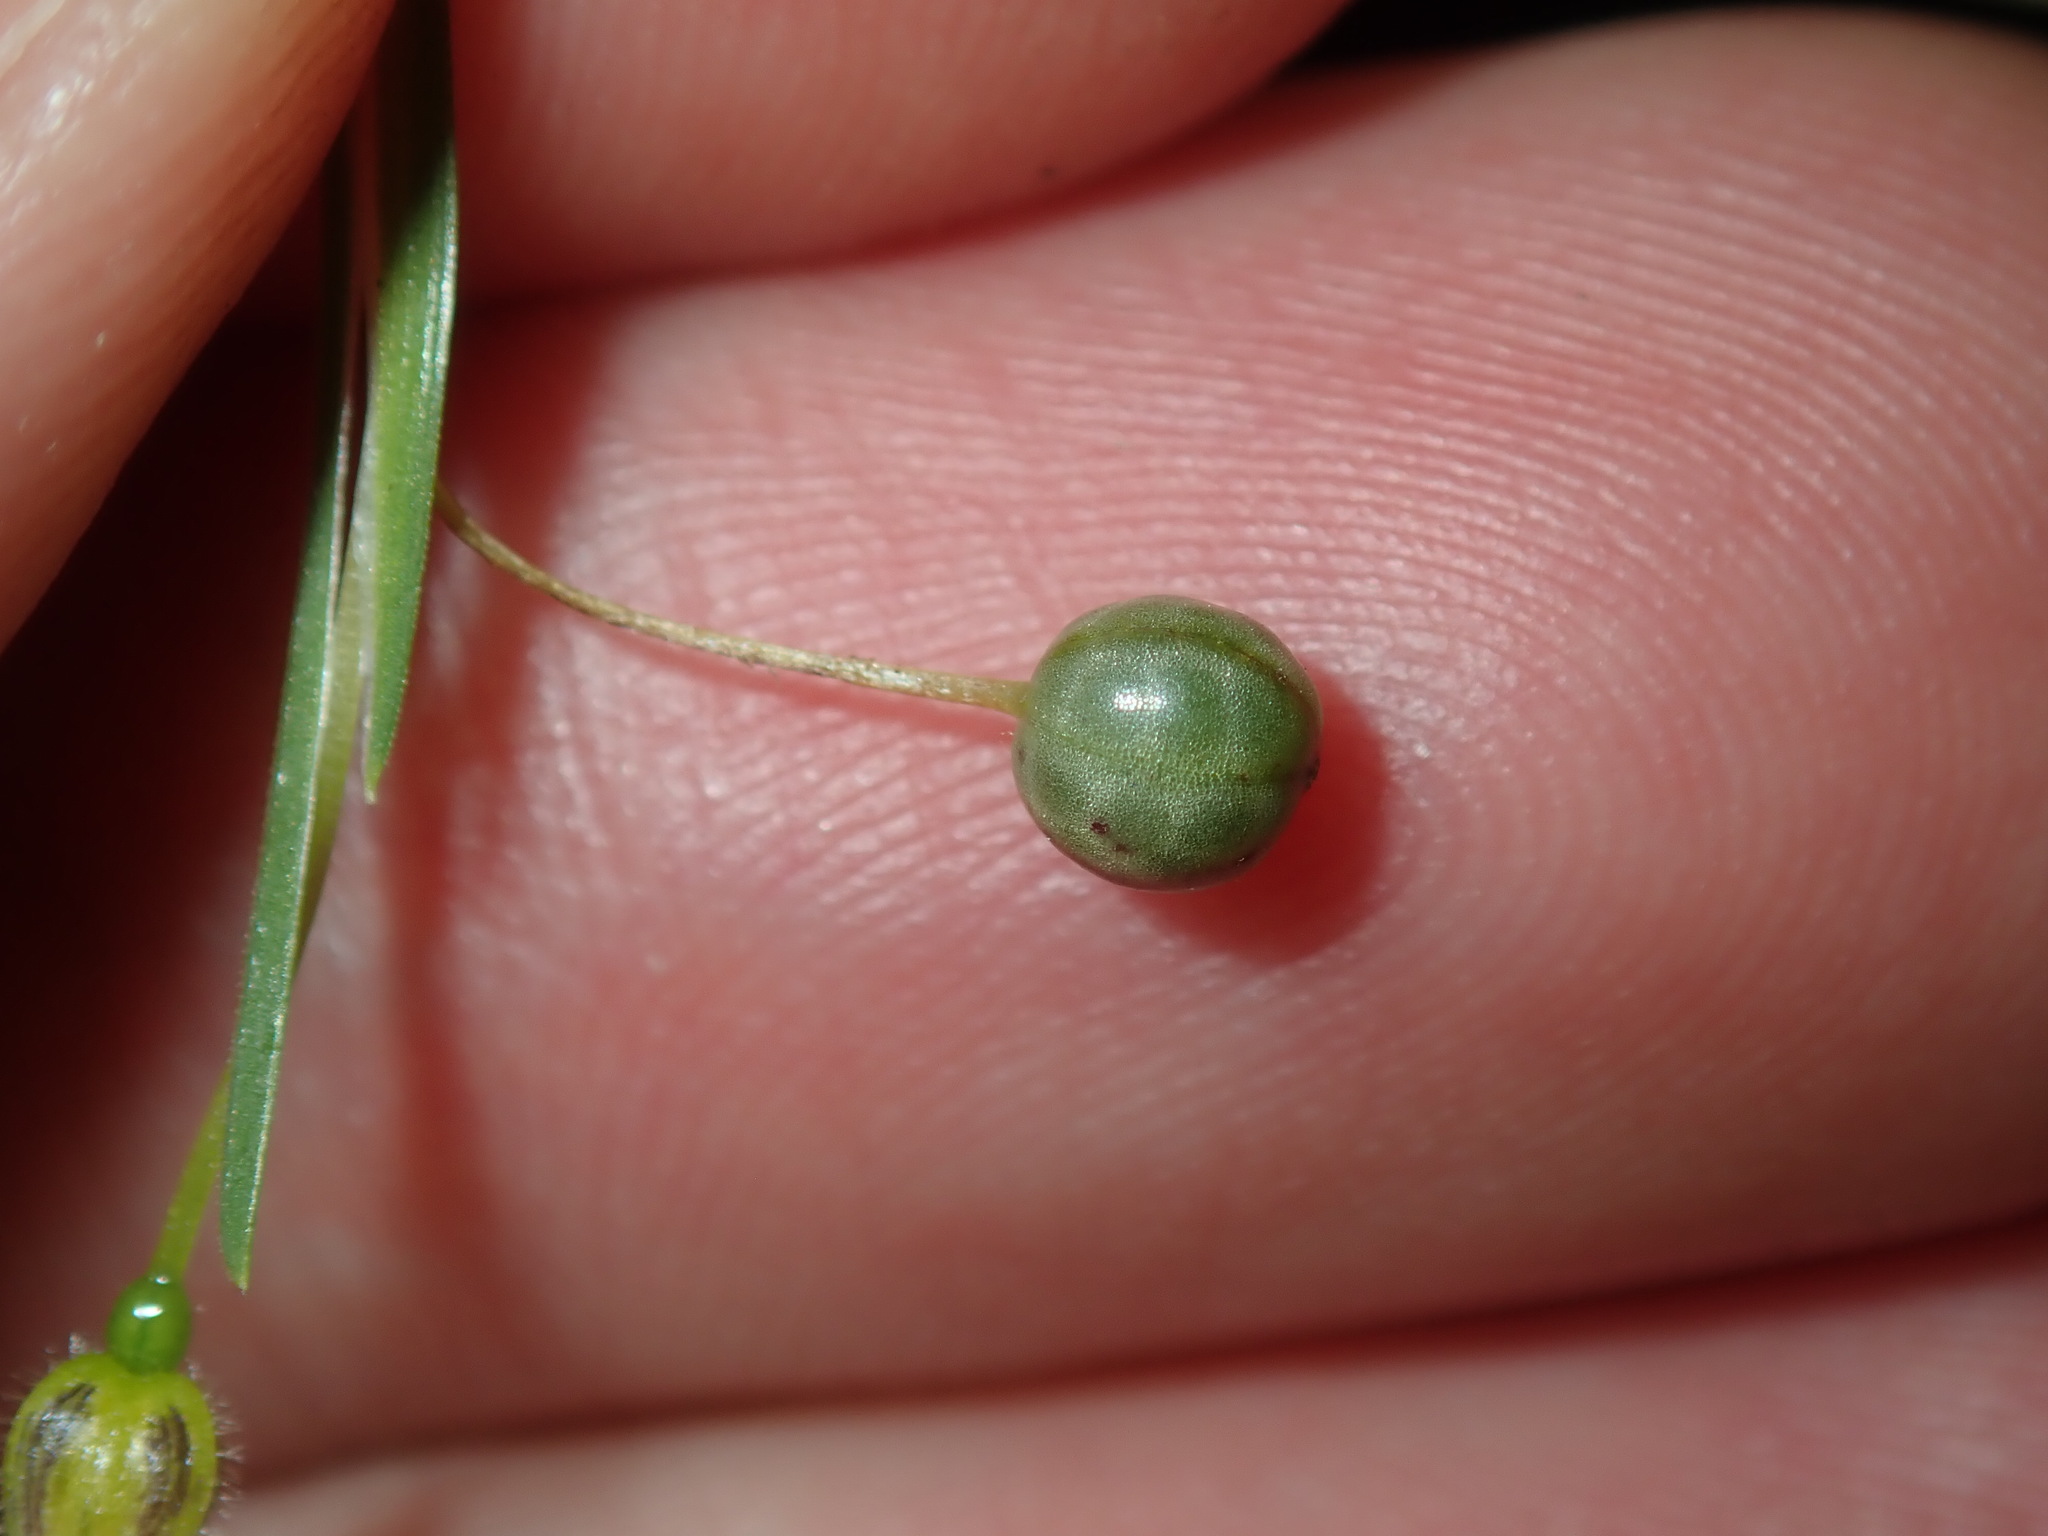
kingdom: Plantae
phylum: Tracheophyta
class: Liliopsida
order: Asparagales
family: Iridaceae
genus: Sisyrinchium
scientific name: Sisyrinchium micranthum
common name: Bermuda pigroot
